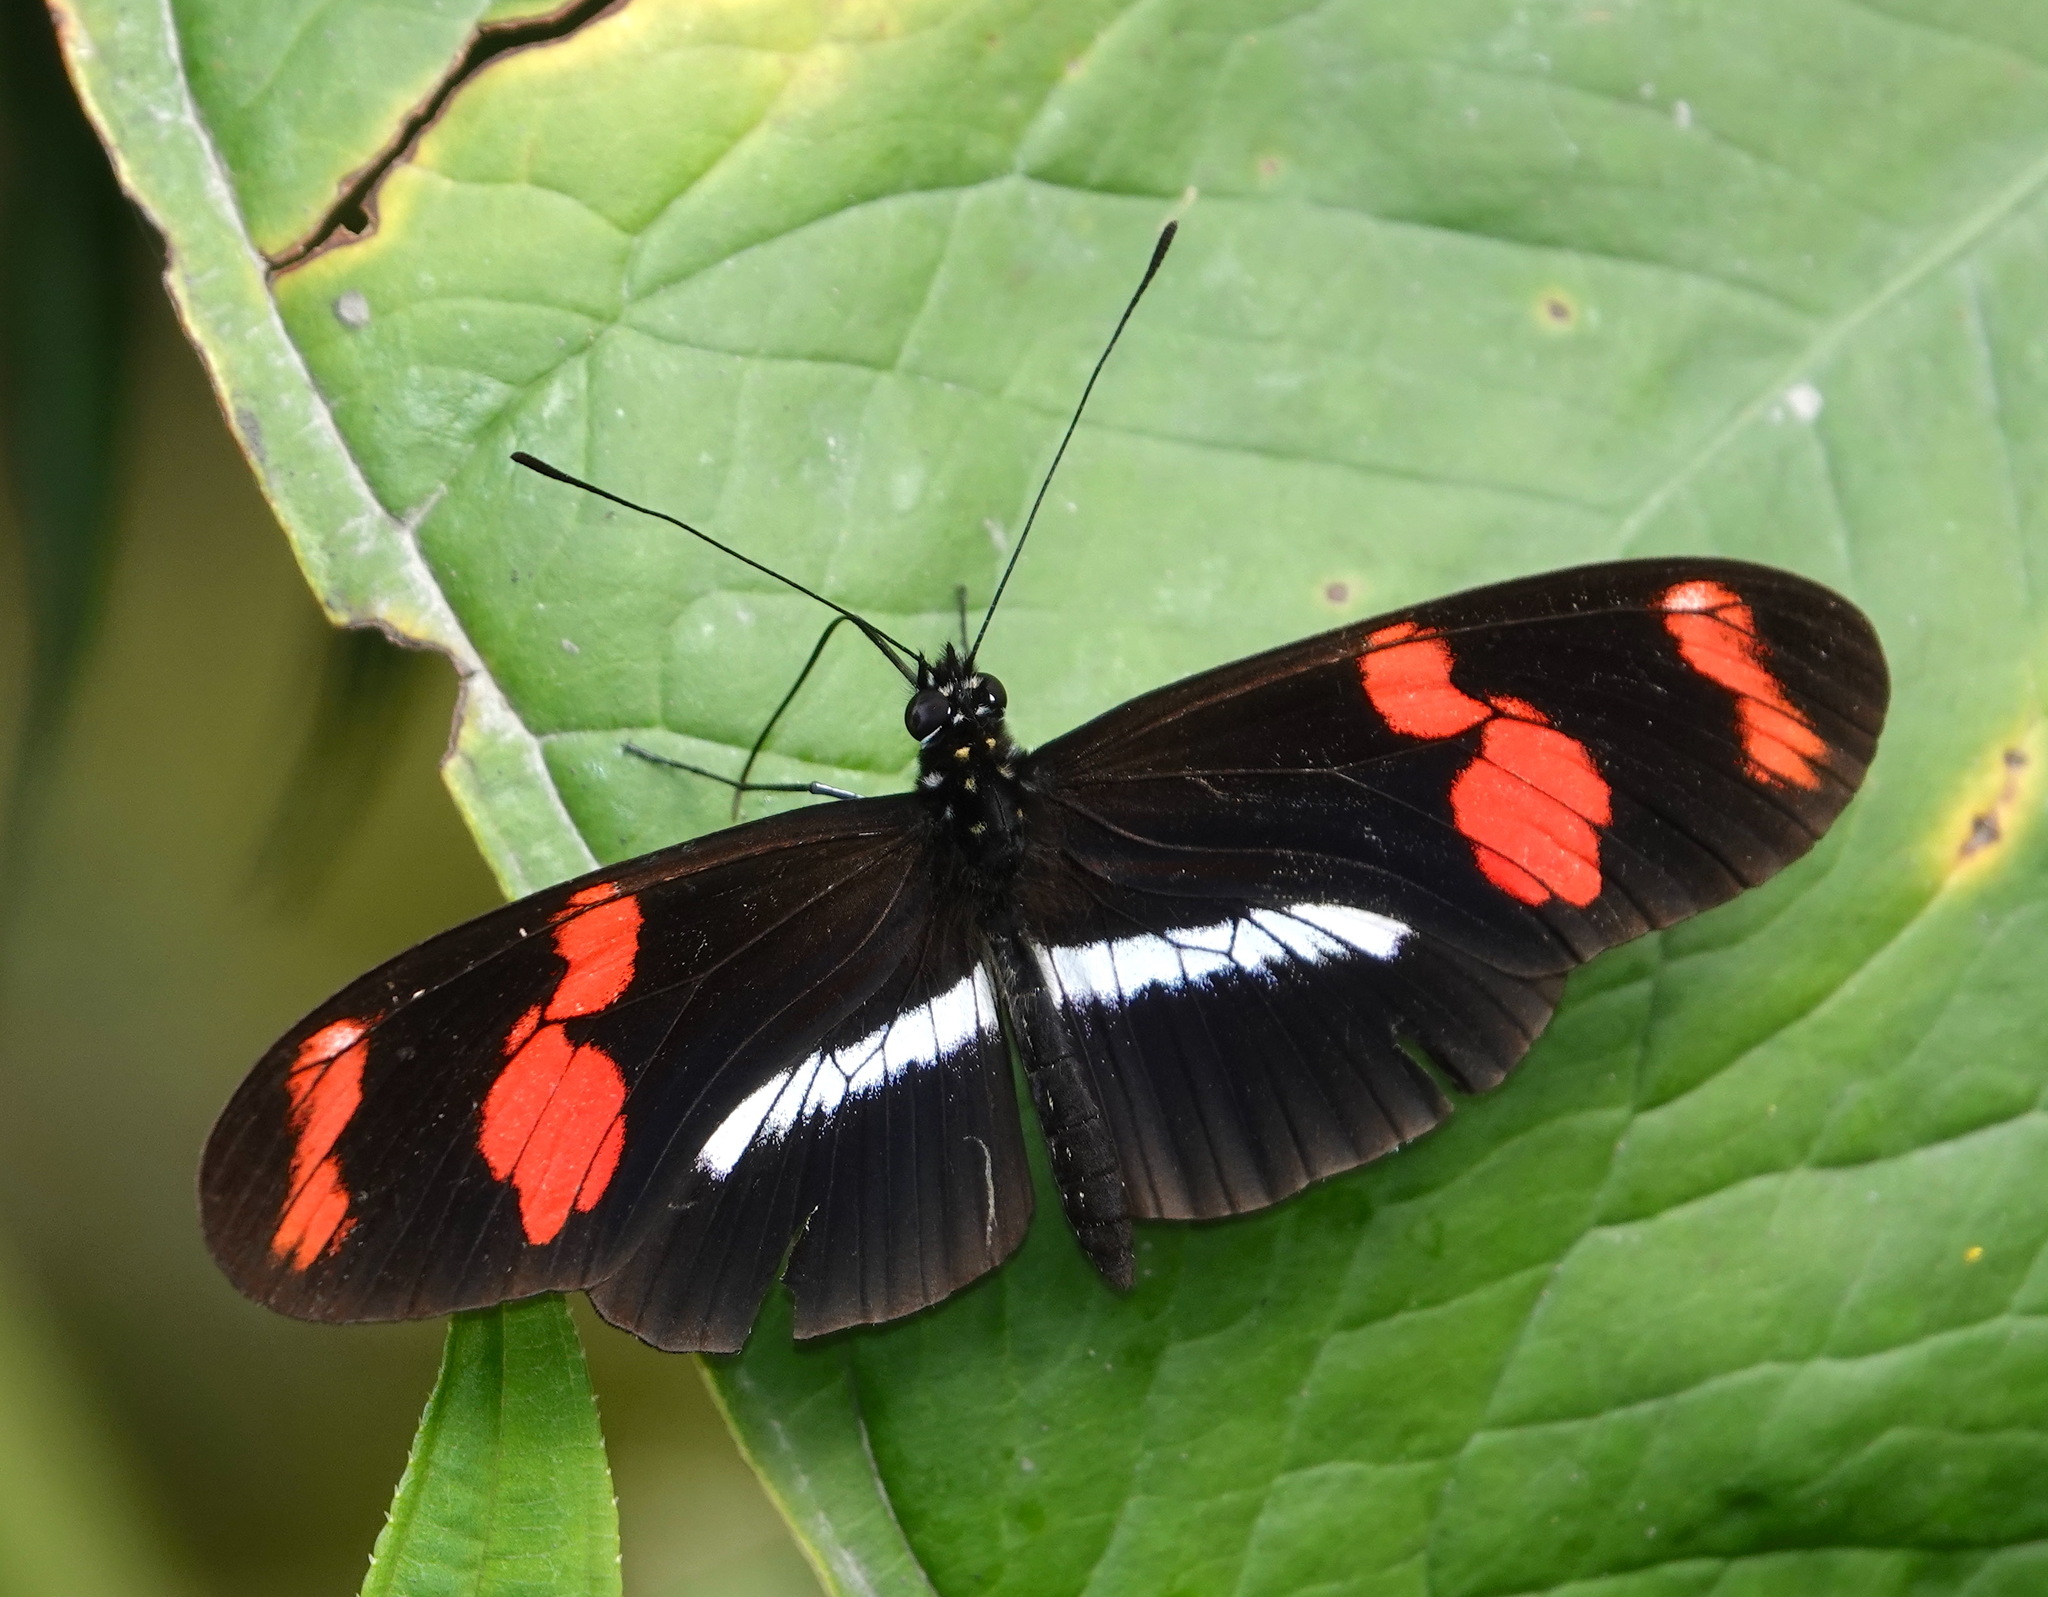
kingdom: Animalia
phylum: Arthropoda
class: Insecta
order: Lepidoptera
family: Nymphalidae
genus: Heliconius
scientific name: Heliconius telesiphe
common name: Telesiphe longwing
